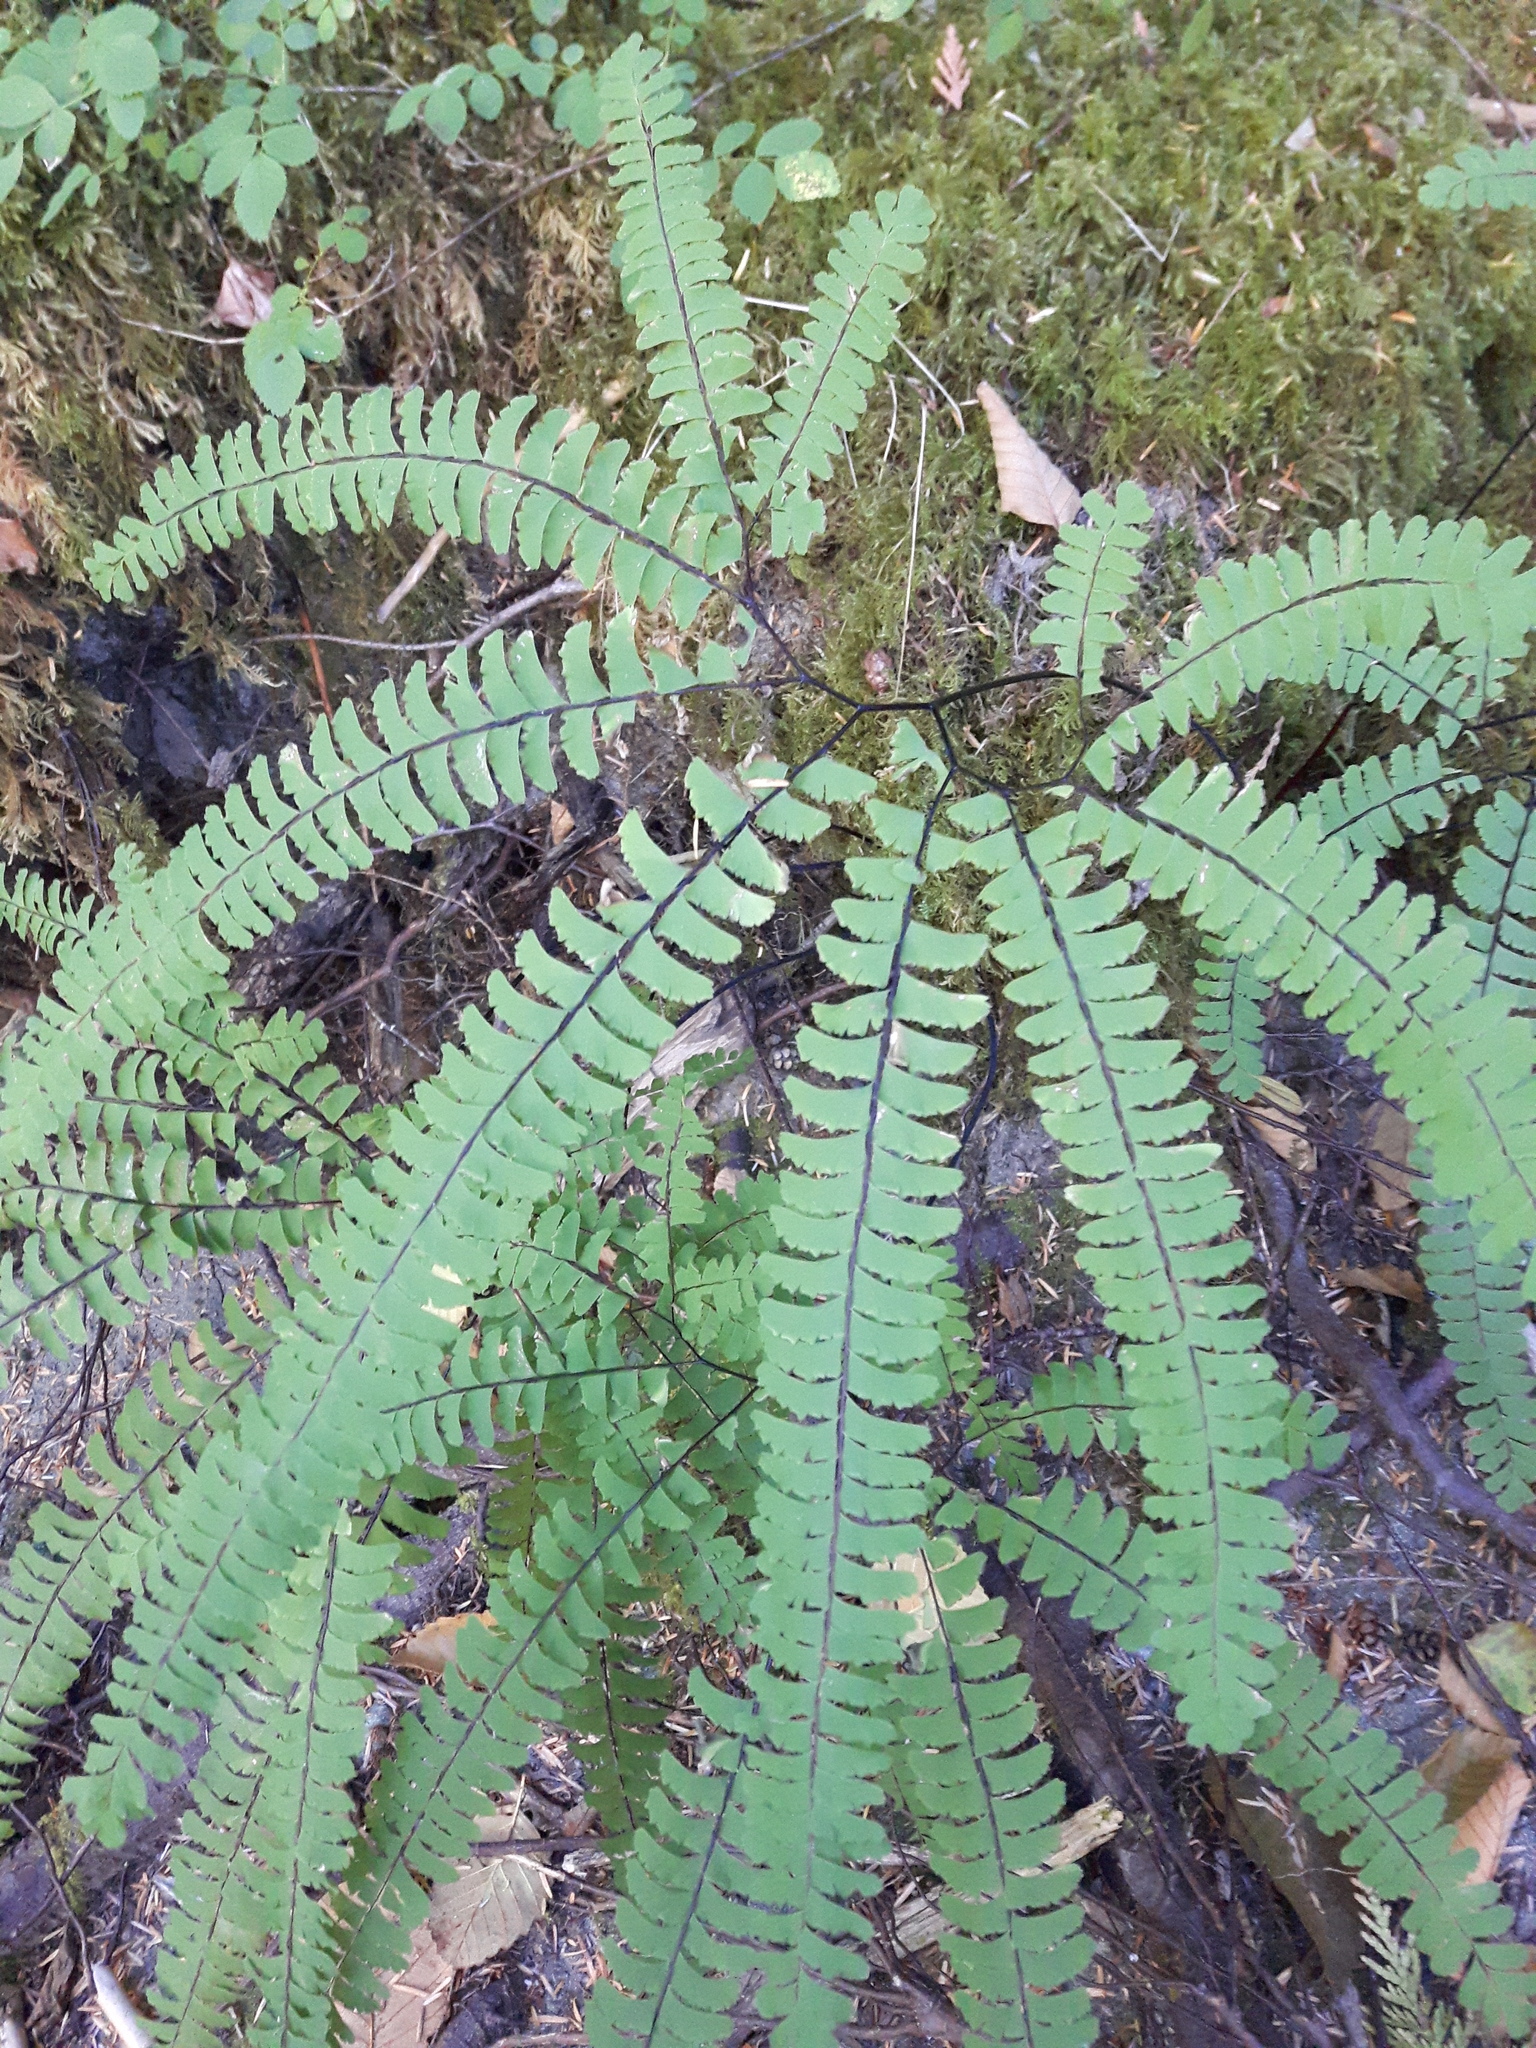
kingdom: Plantae
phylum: Tracheophyta
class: Polypodiopsida
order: Polypodiales
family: Pteridaceae
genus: Adiantum
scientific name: Adiantum aleuticum
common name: Aleutian maidenhair fern
